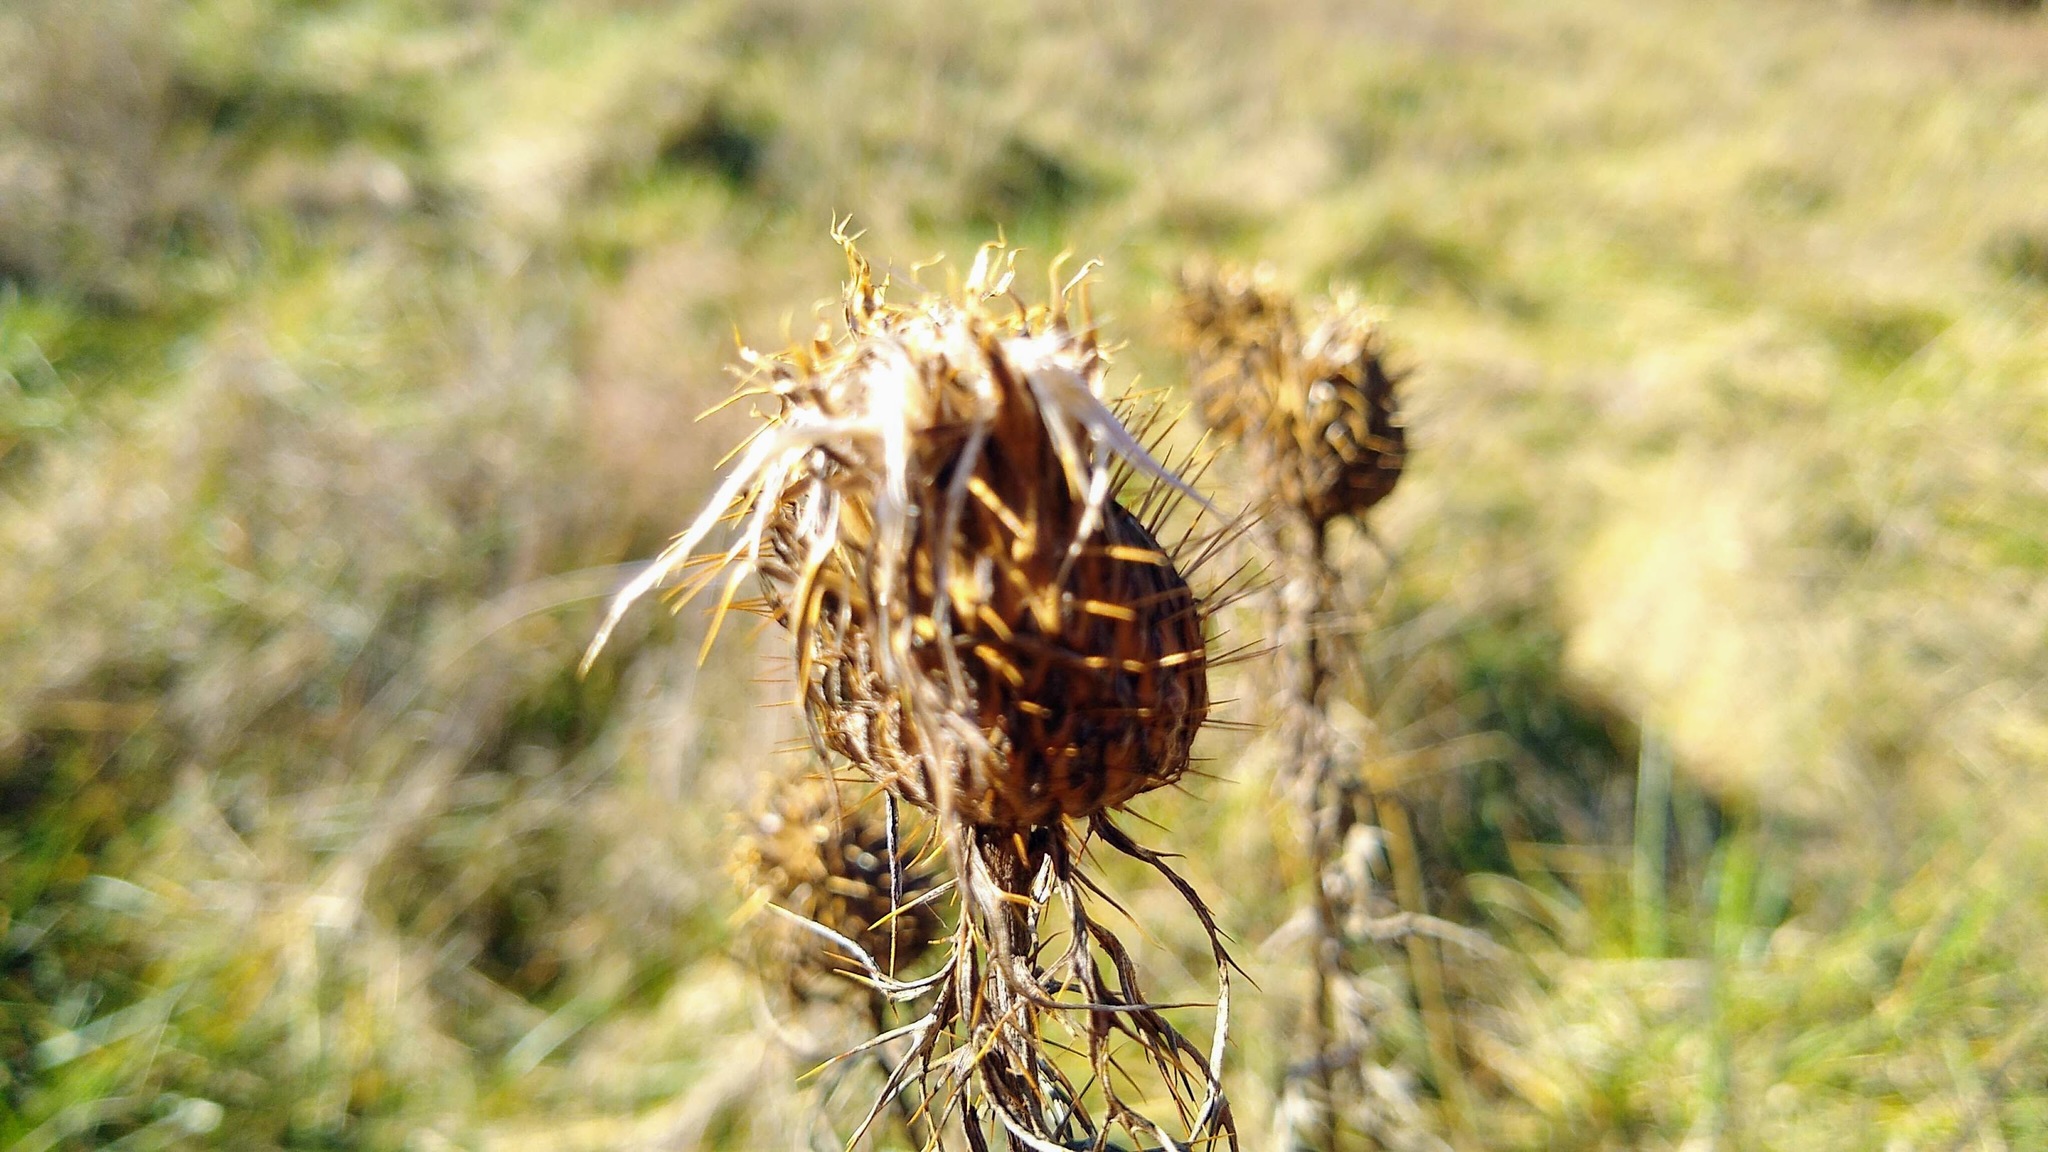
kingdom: Plantae
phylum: Tracheophyta
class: Magnoliopsida
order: Asterales
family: Asteraceae
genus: Cirsium
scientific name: Cirsium discolor
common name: Field thistle
